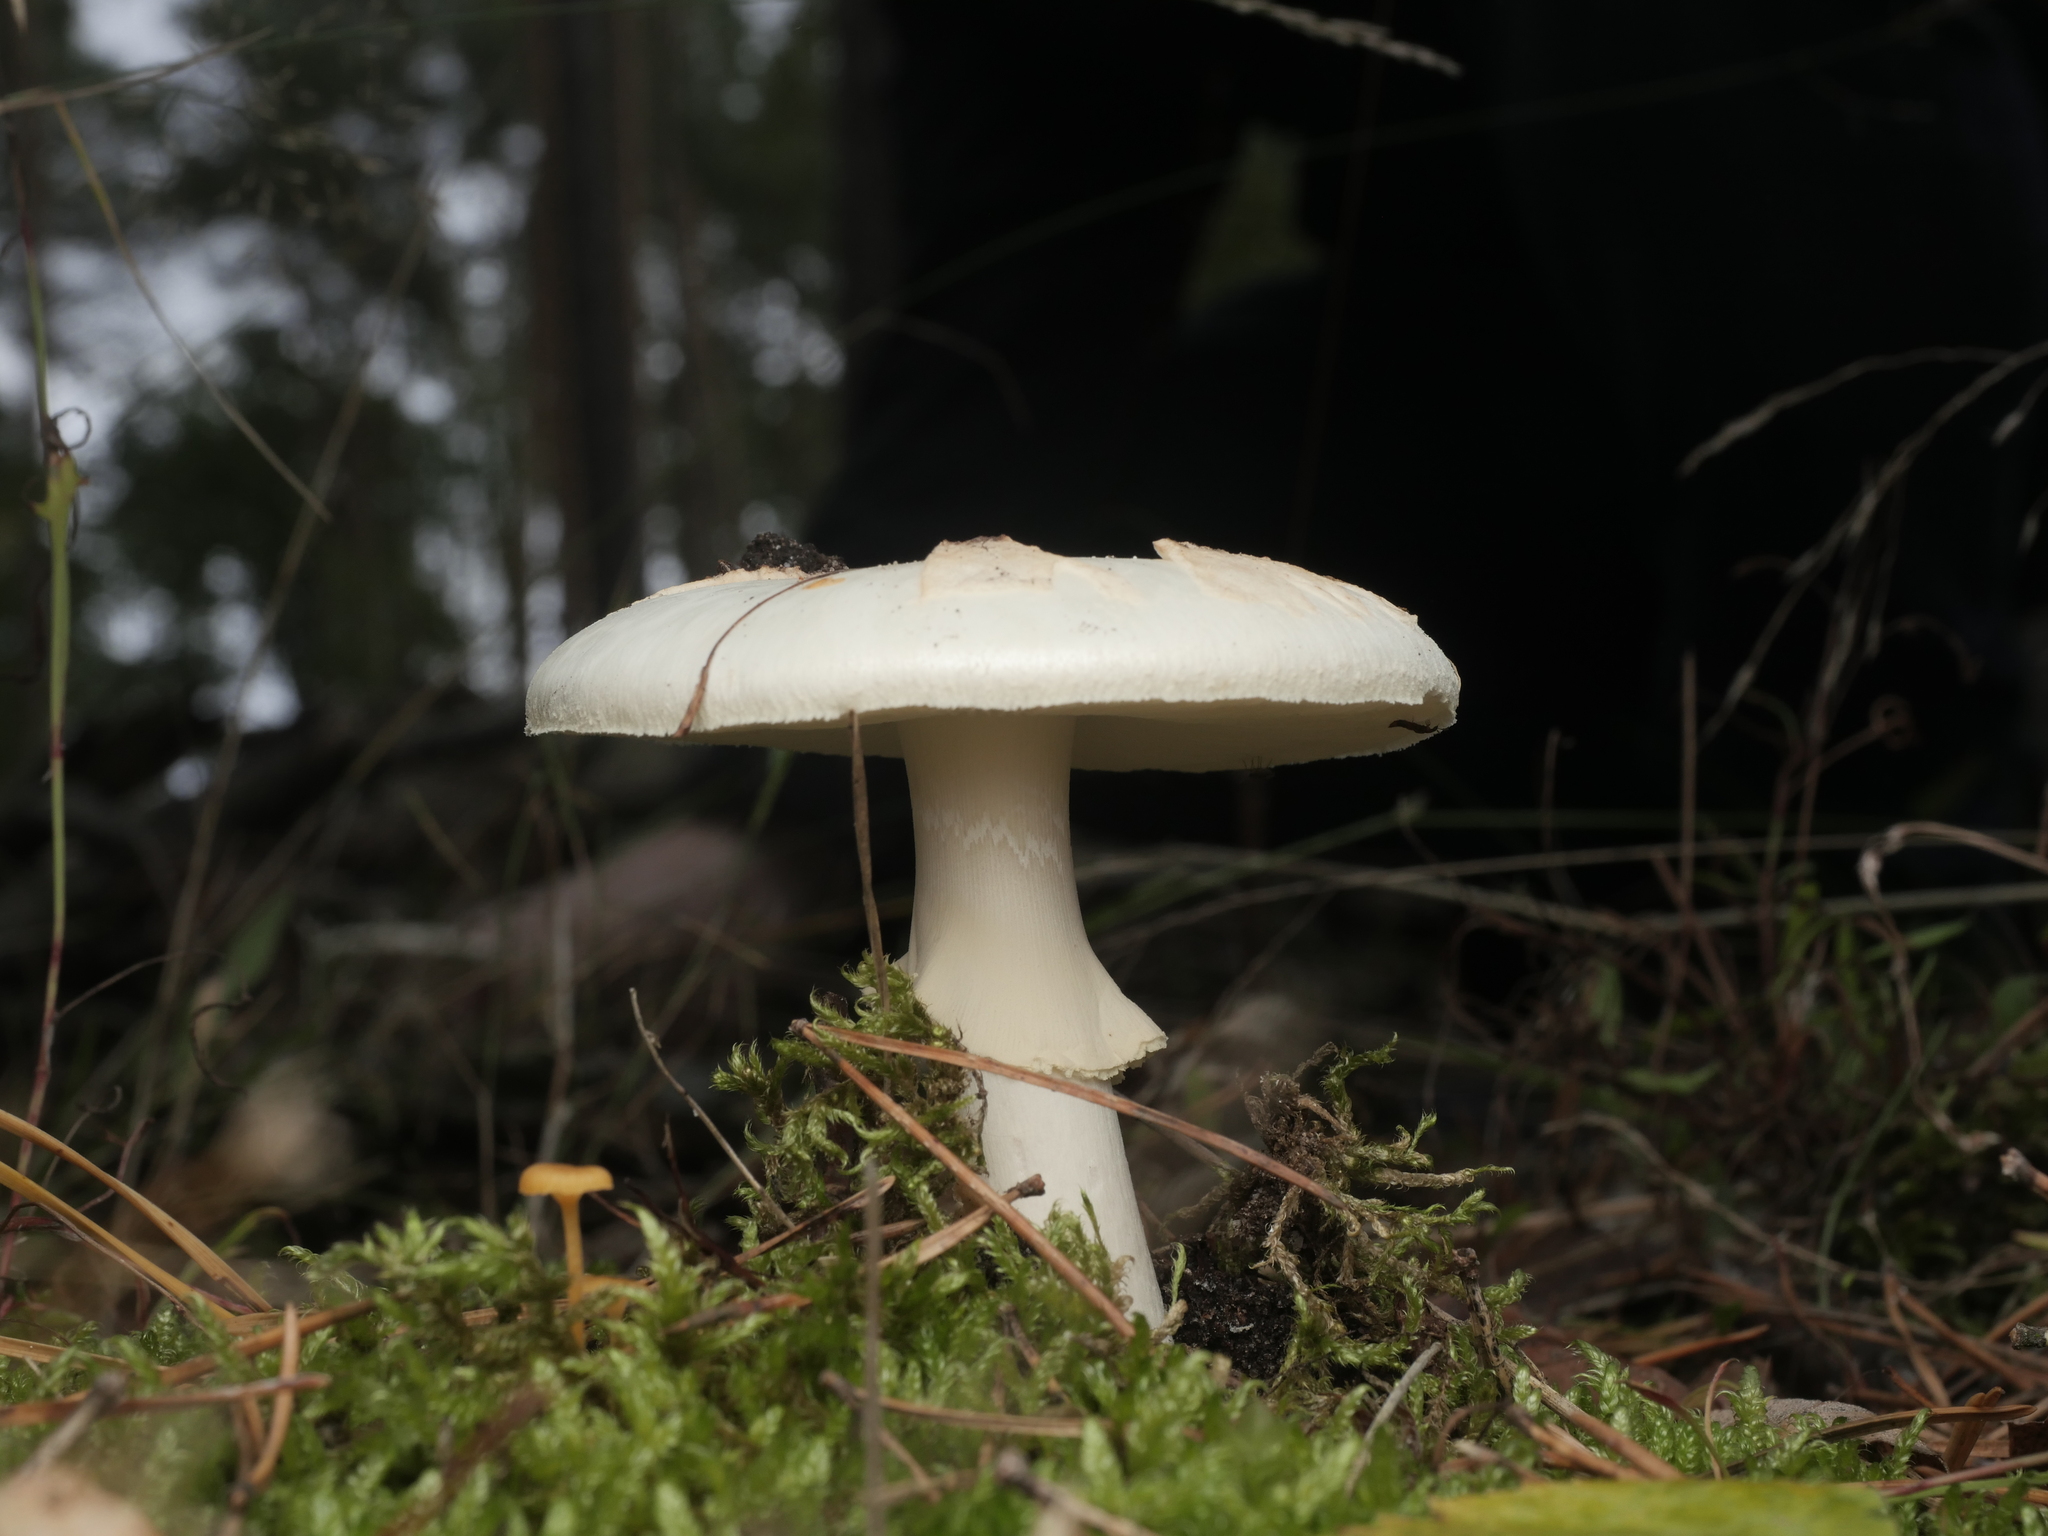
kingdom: Fungi
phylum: Basidiomycota
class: Agaricomycetes
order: Agaricales
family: Amanitaceae
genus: Amanita
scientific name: Amanita citrina
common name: False death-cap
